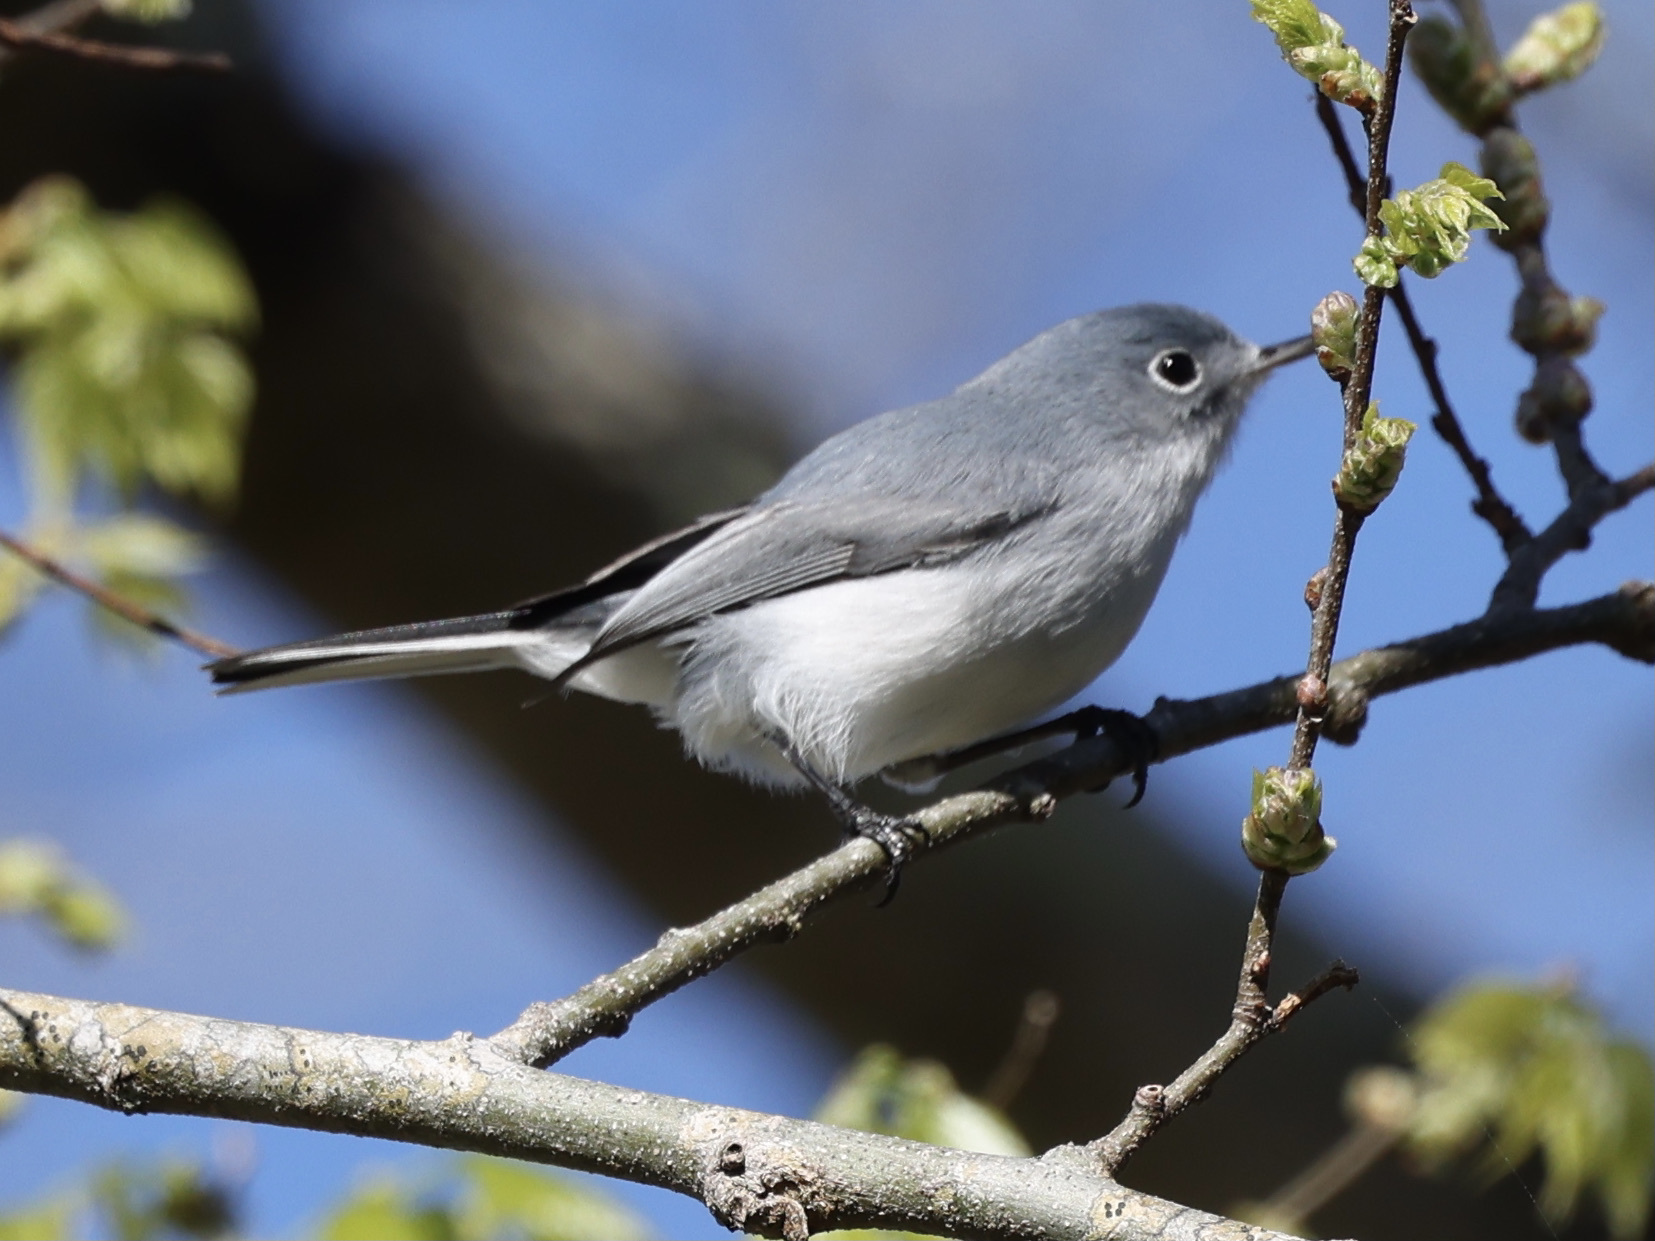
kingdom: Animalia
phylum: Chordata
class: Aves
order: Passeriformes
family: Polioptilidae
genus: Polioptila
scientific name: Polioptila caerulea
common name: Blue-gray gnatcatcher
